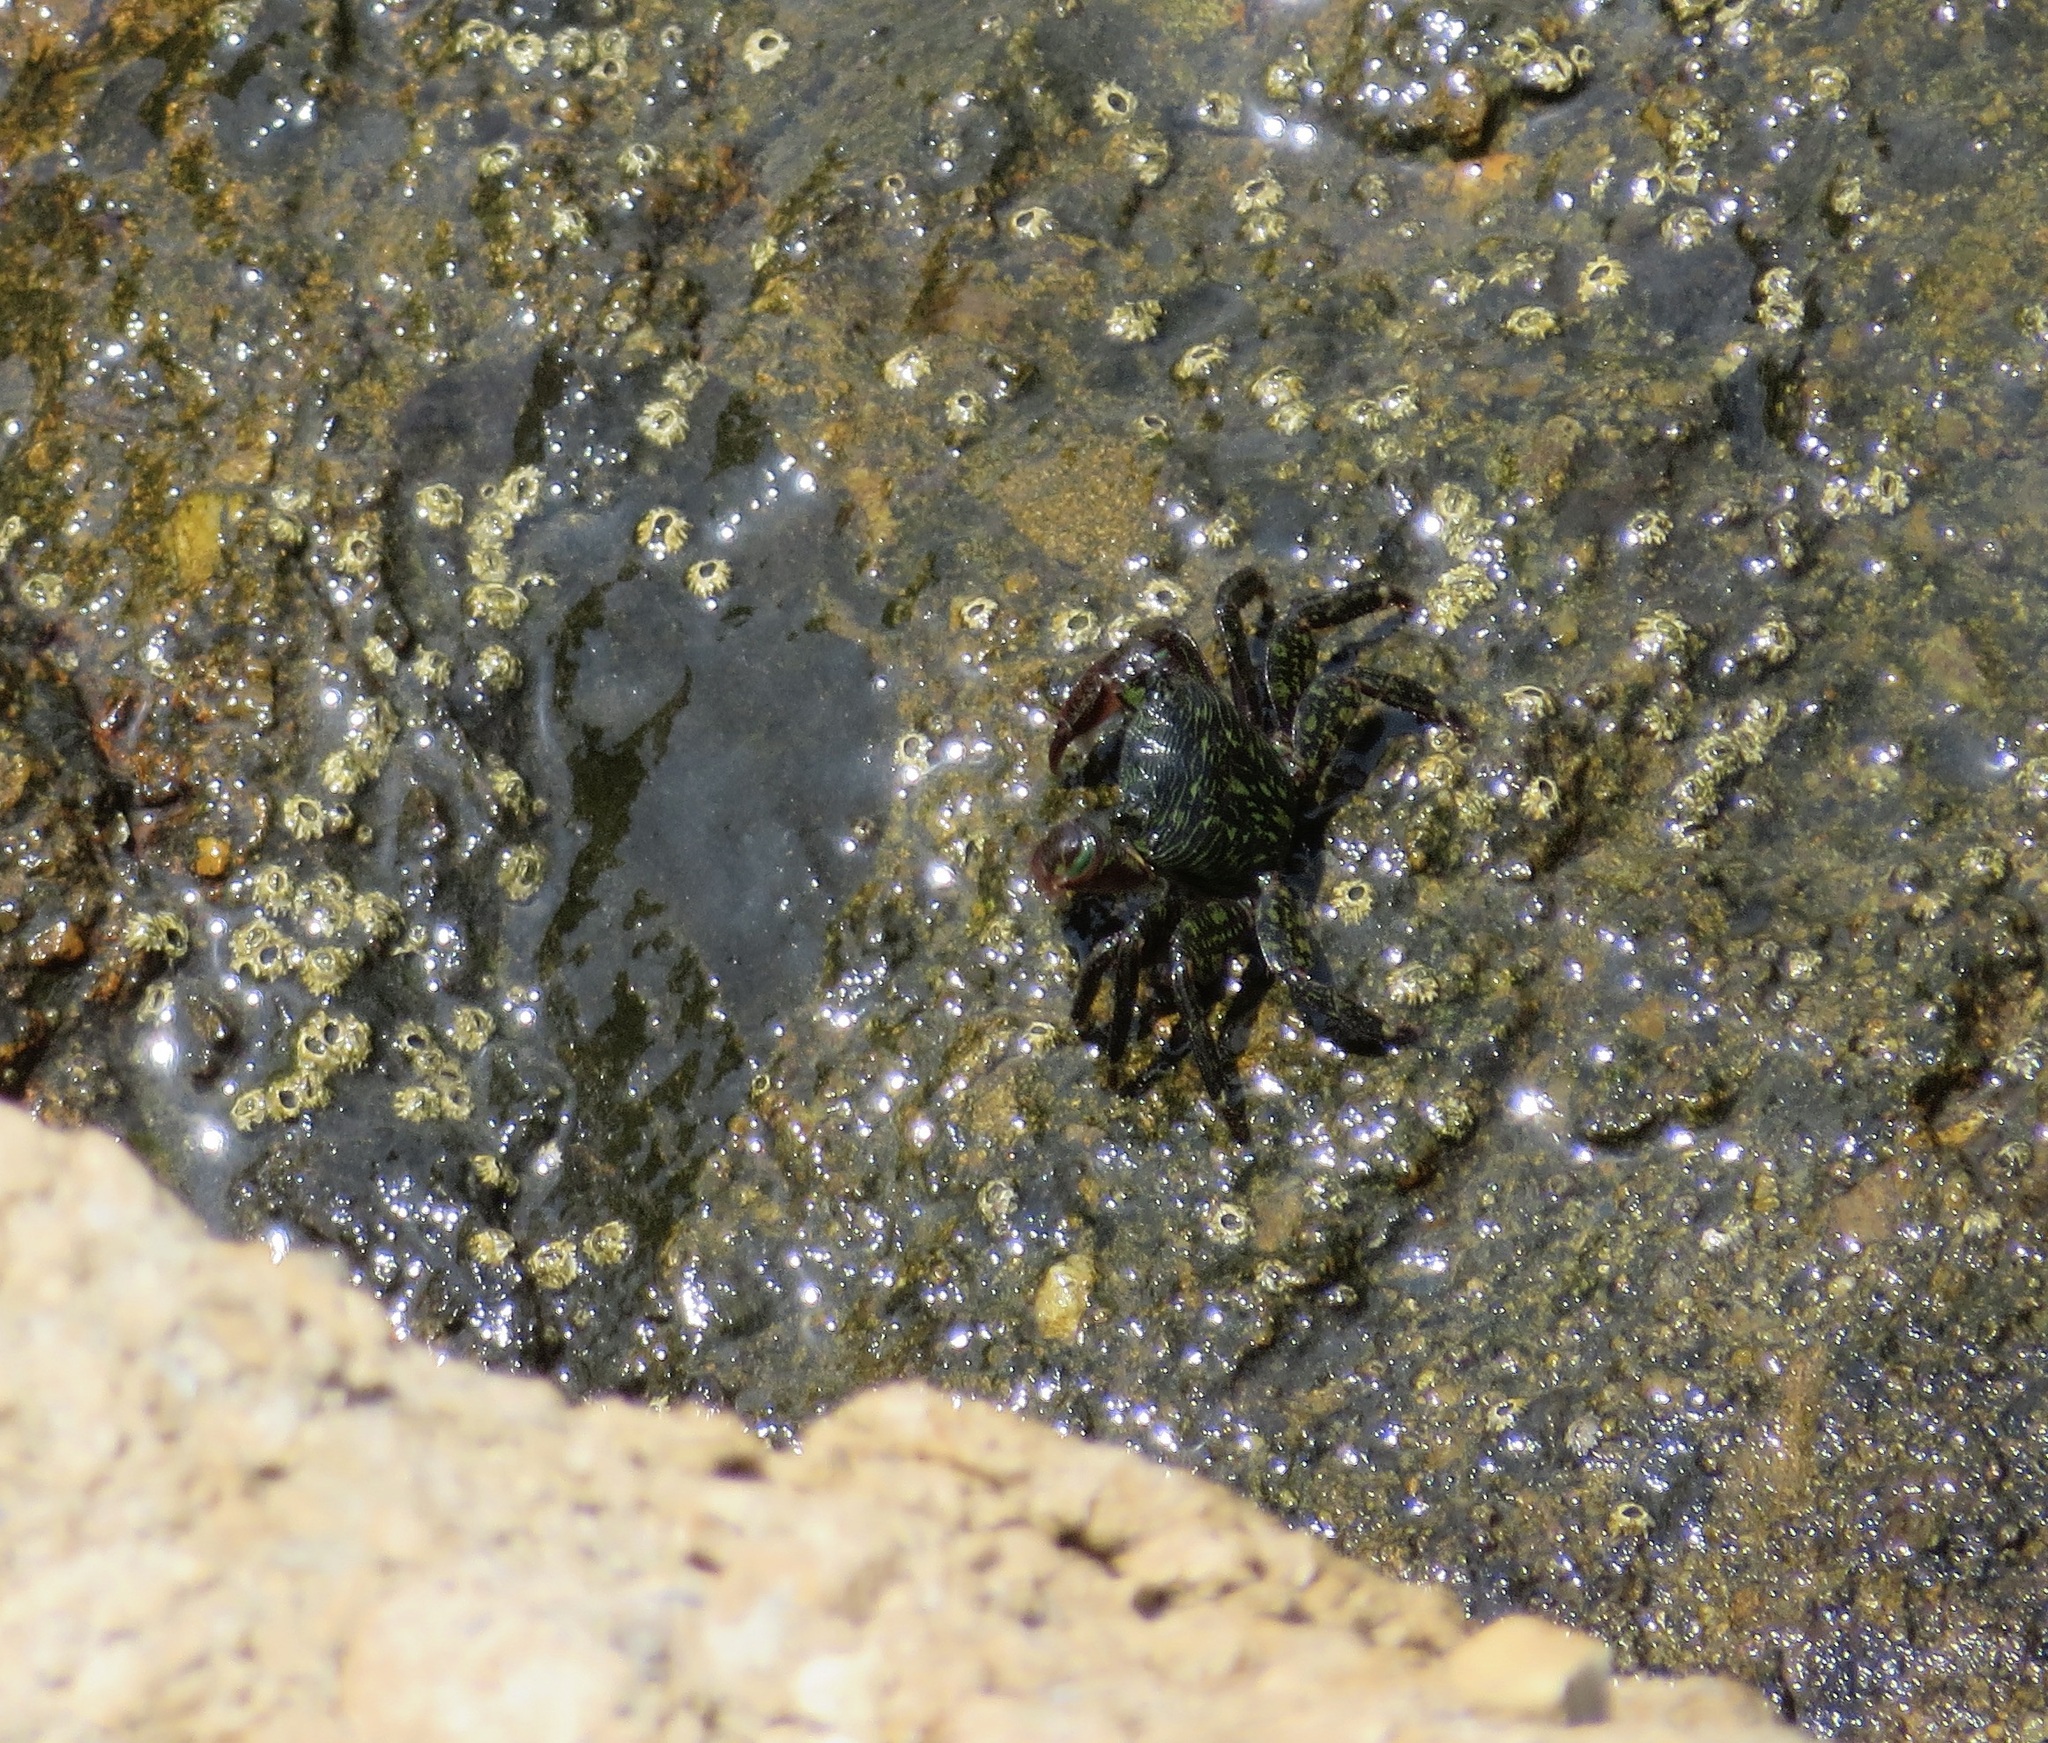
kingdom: Animalia
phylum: Arthropoda
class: Malacostraca
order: Decapoda
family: Grapsidae
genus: Pachygrapsus
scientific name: Pachygrapsus crassipes
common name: Striped shore crab
